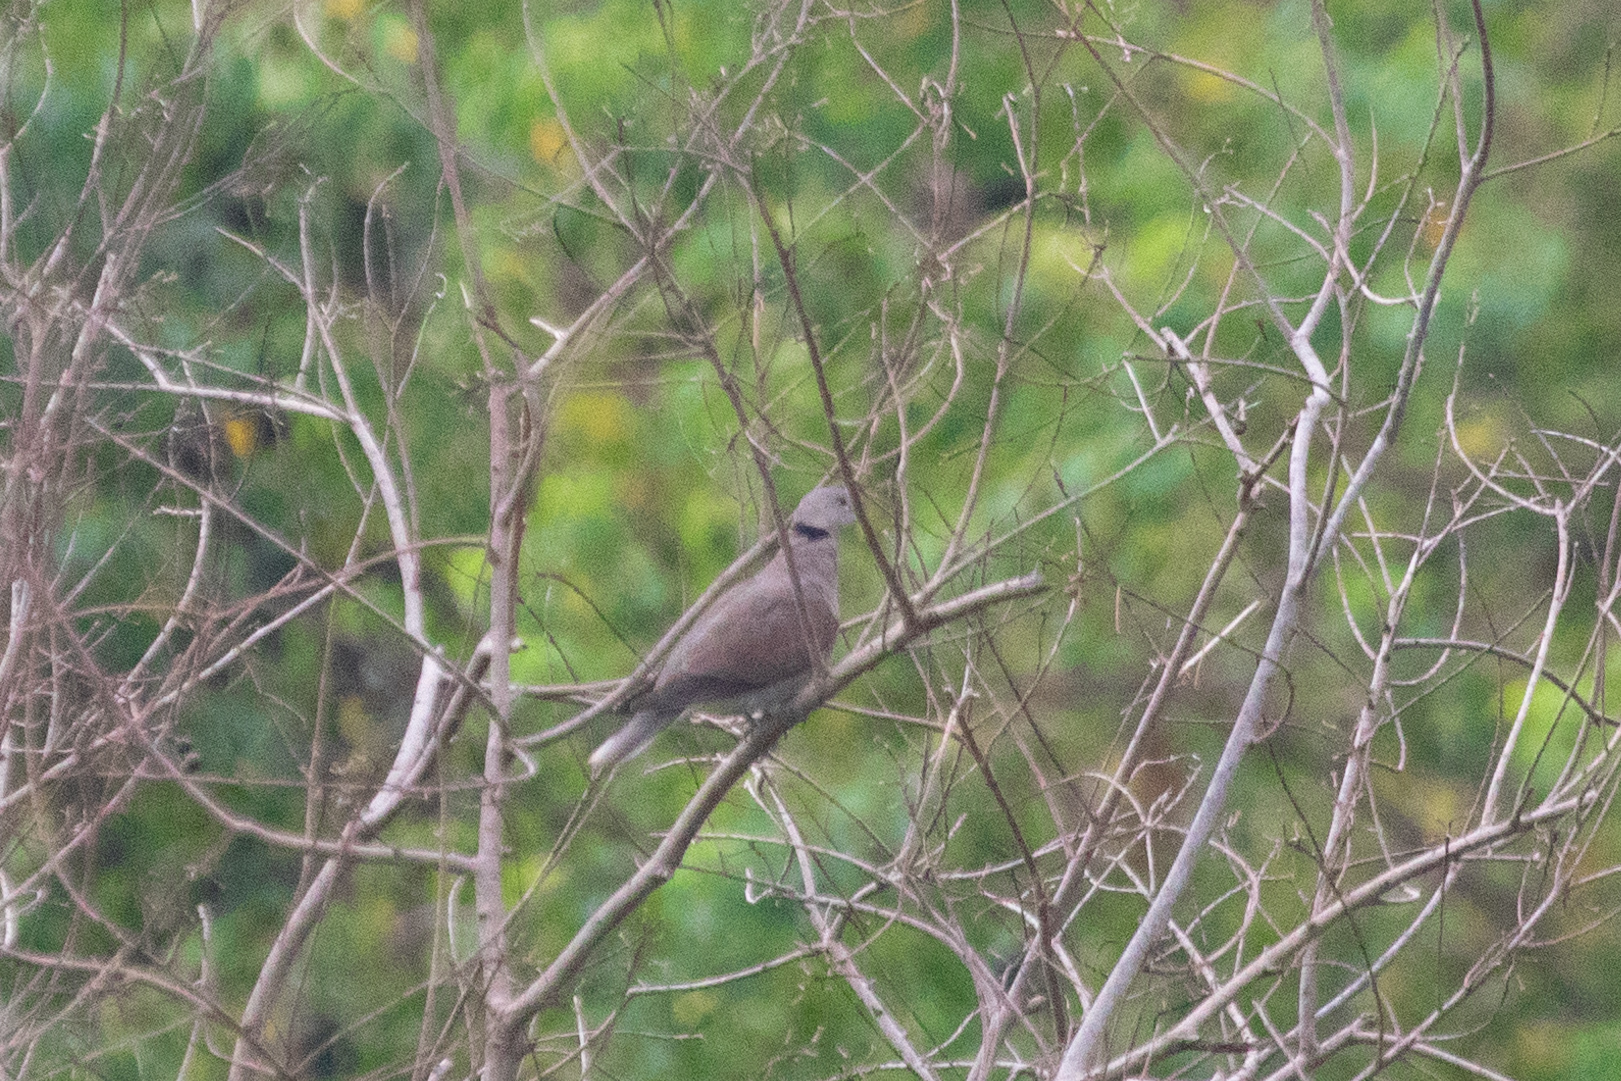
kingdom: Animalia
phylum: Chordata
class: Aves
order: Columbiformes
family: Columbidae
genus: Streptopelia
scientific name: Streptopelia tranquebarica
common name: Red turtle dove
